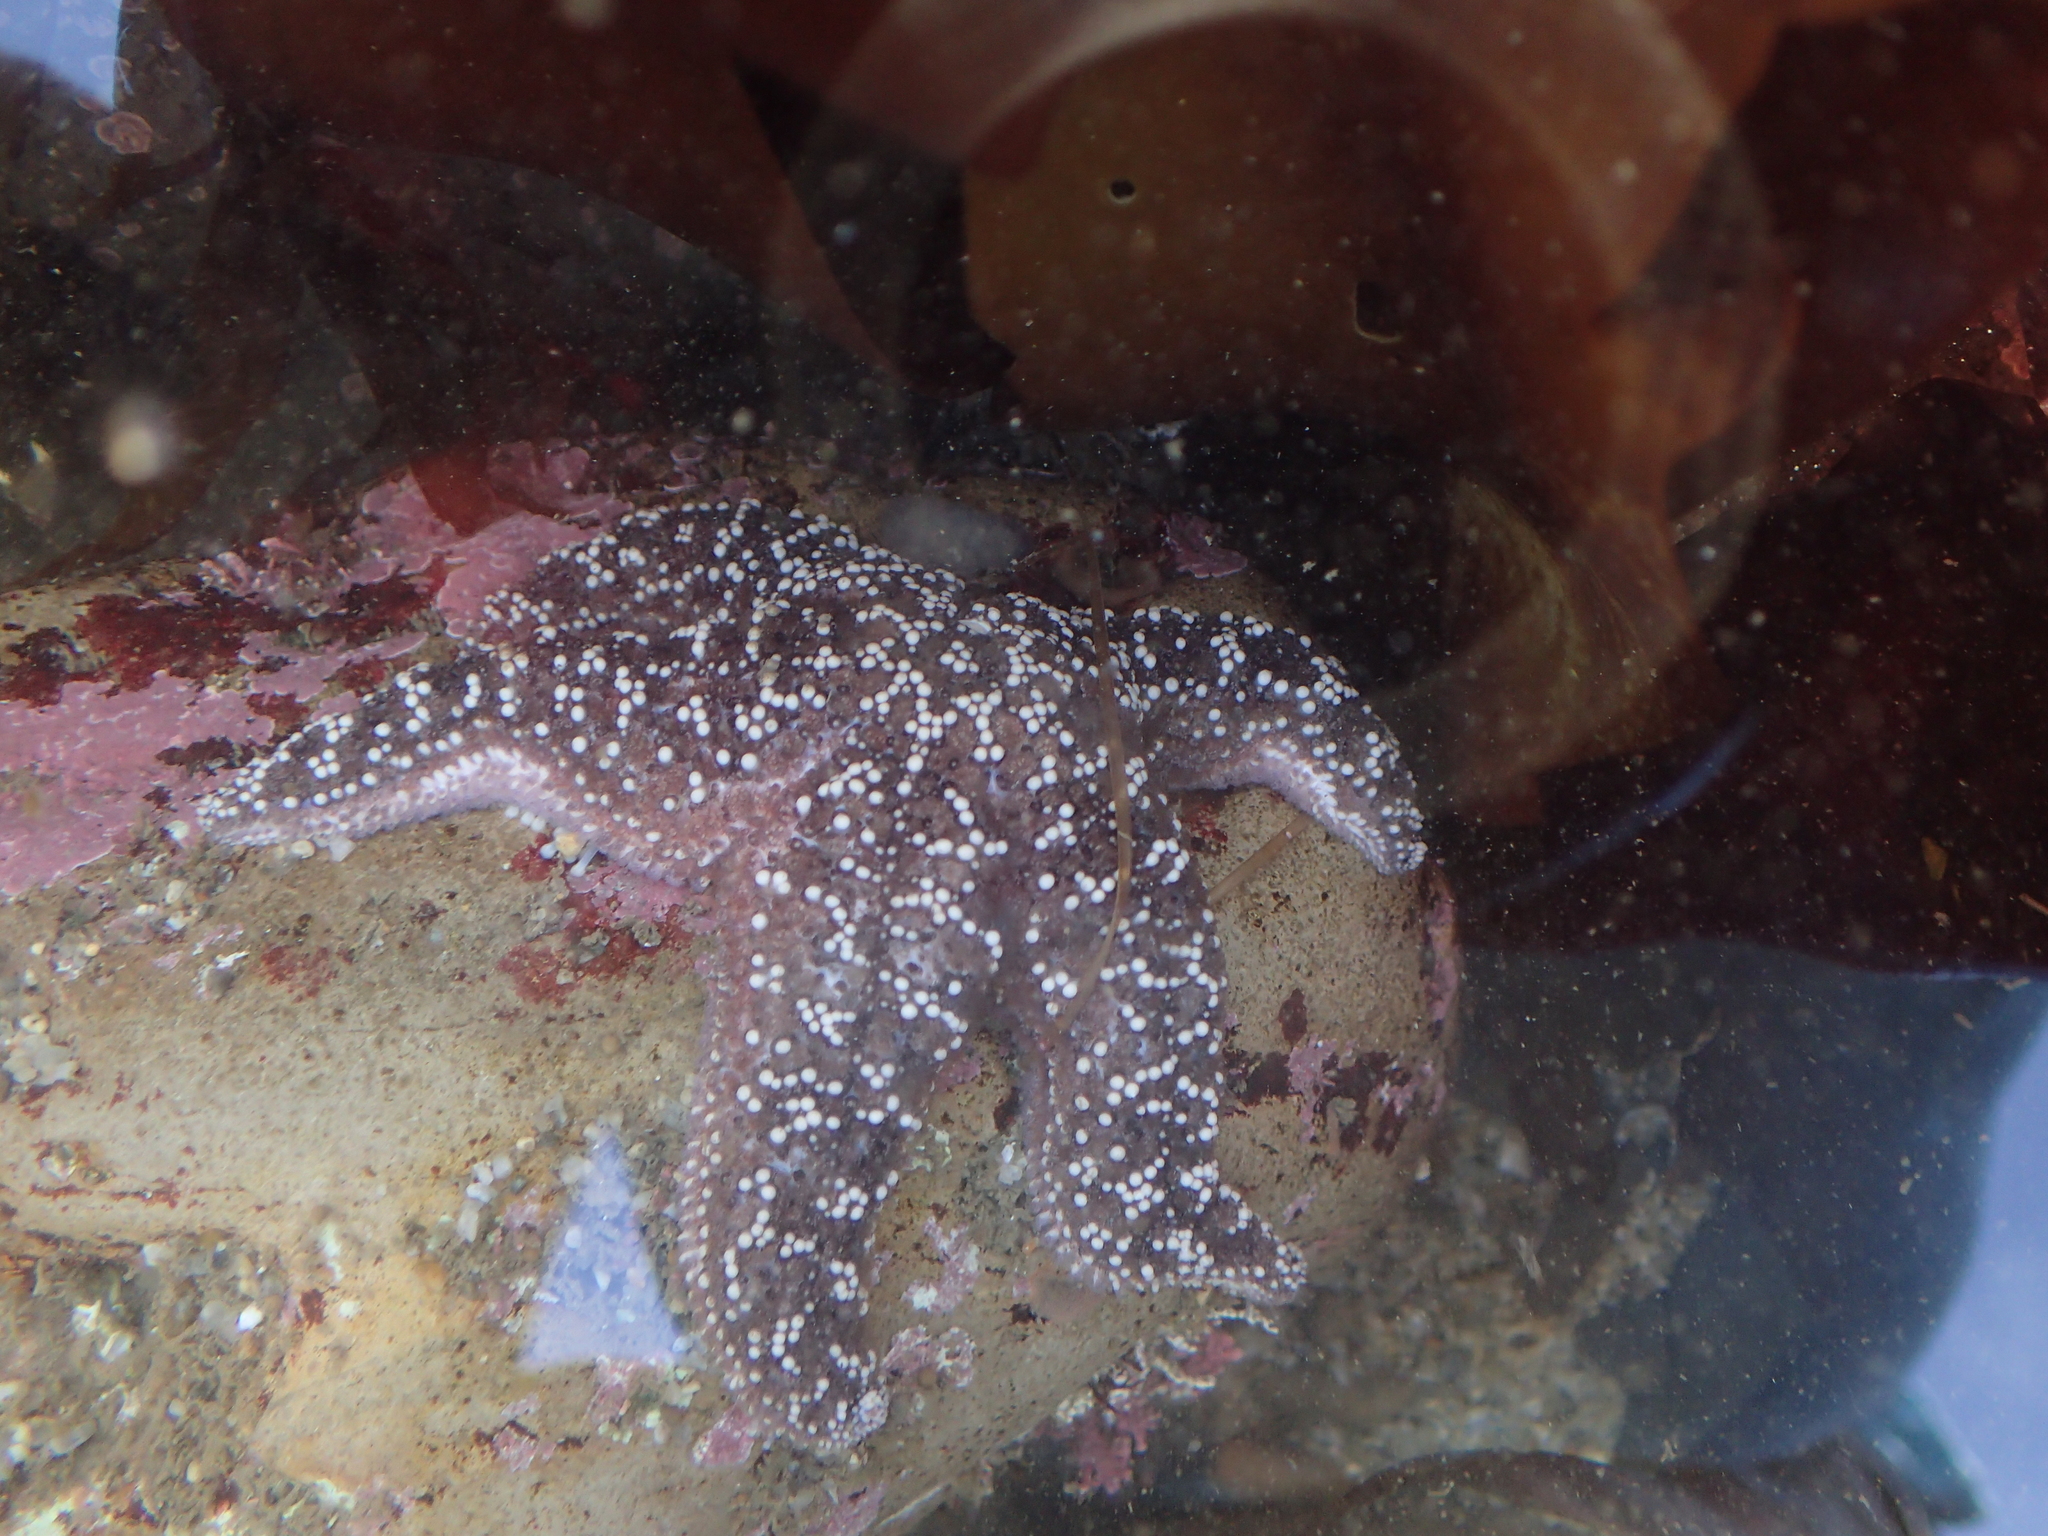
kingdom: Animalia
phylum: Echinodermata
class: Asteroidea
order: Forcipulatida
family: Asteriidae
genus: Pisaster
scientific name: Pisaster ochraceus
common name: Ochre stars
